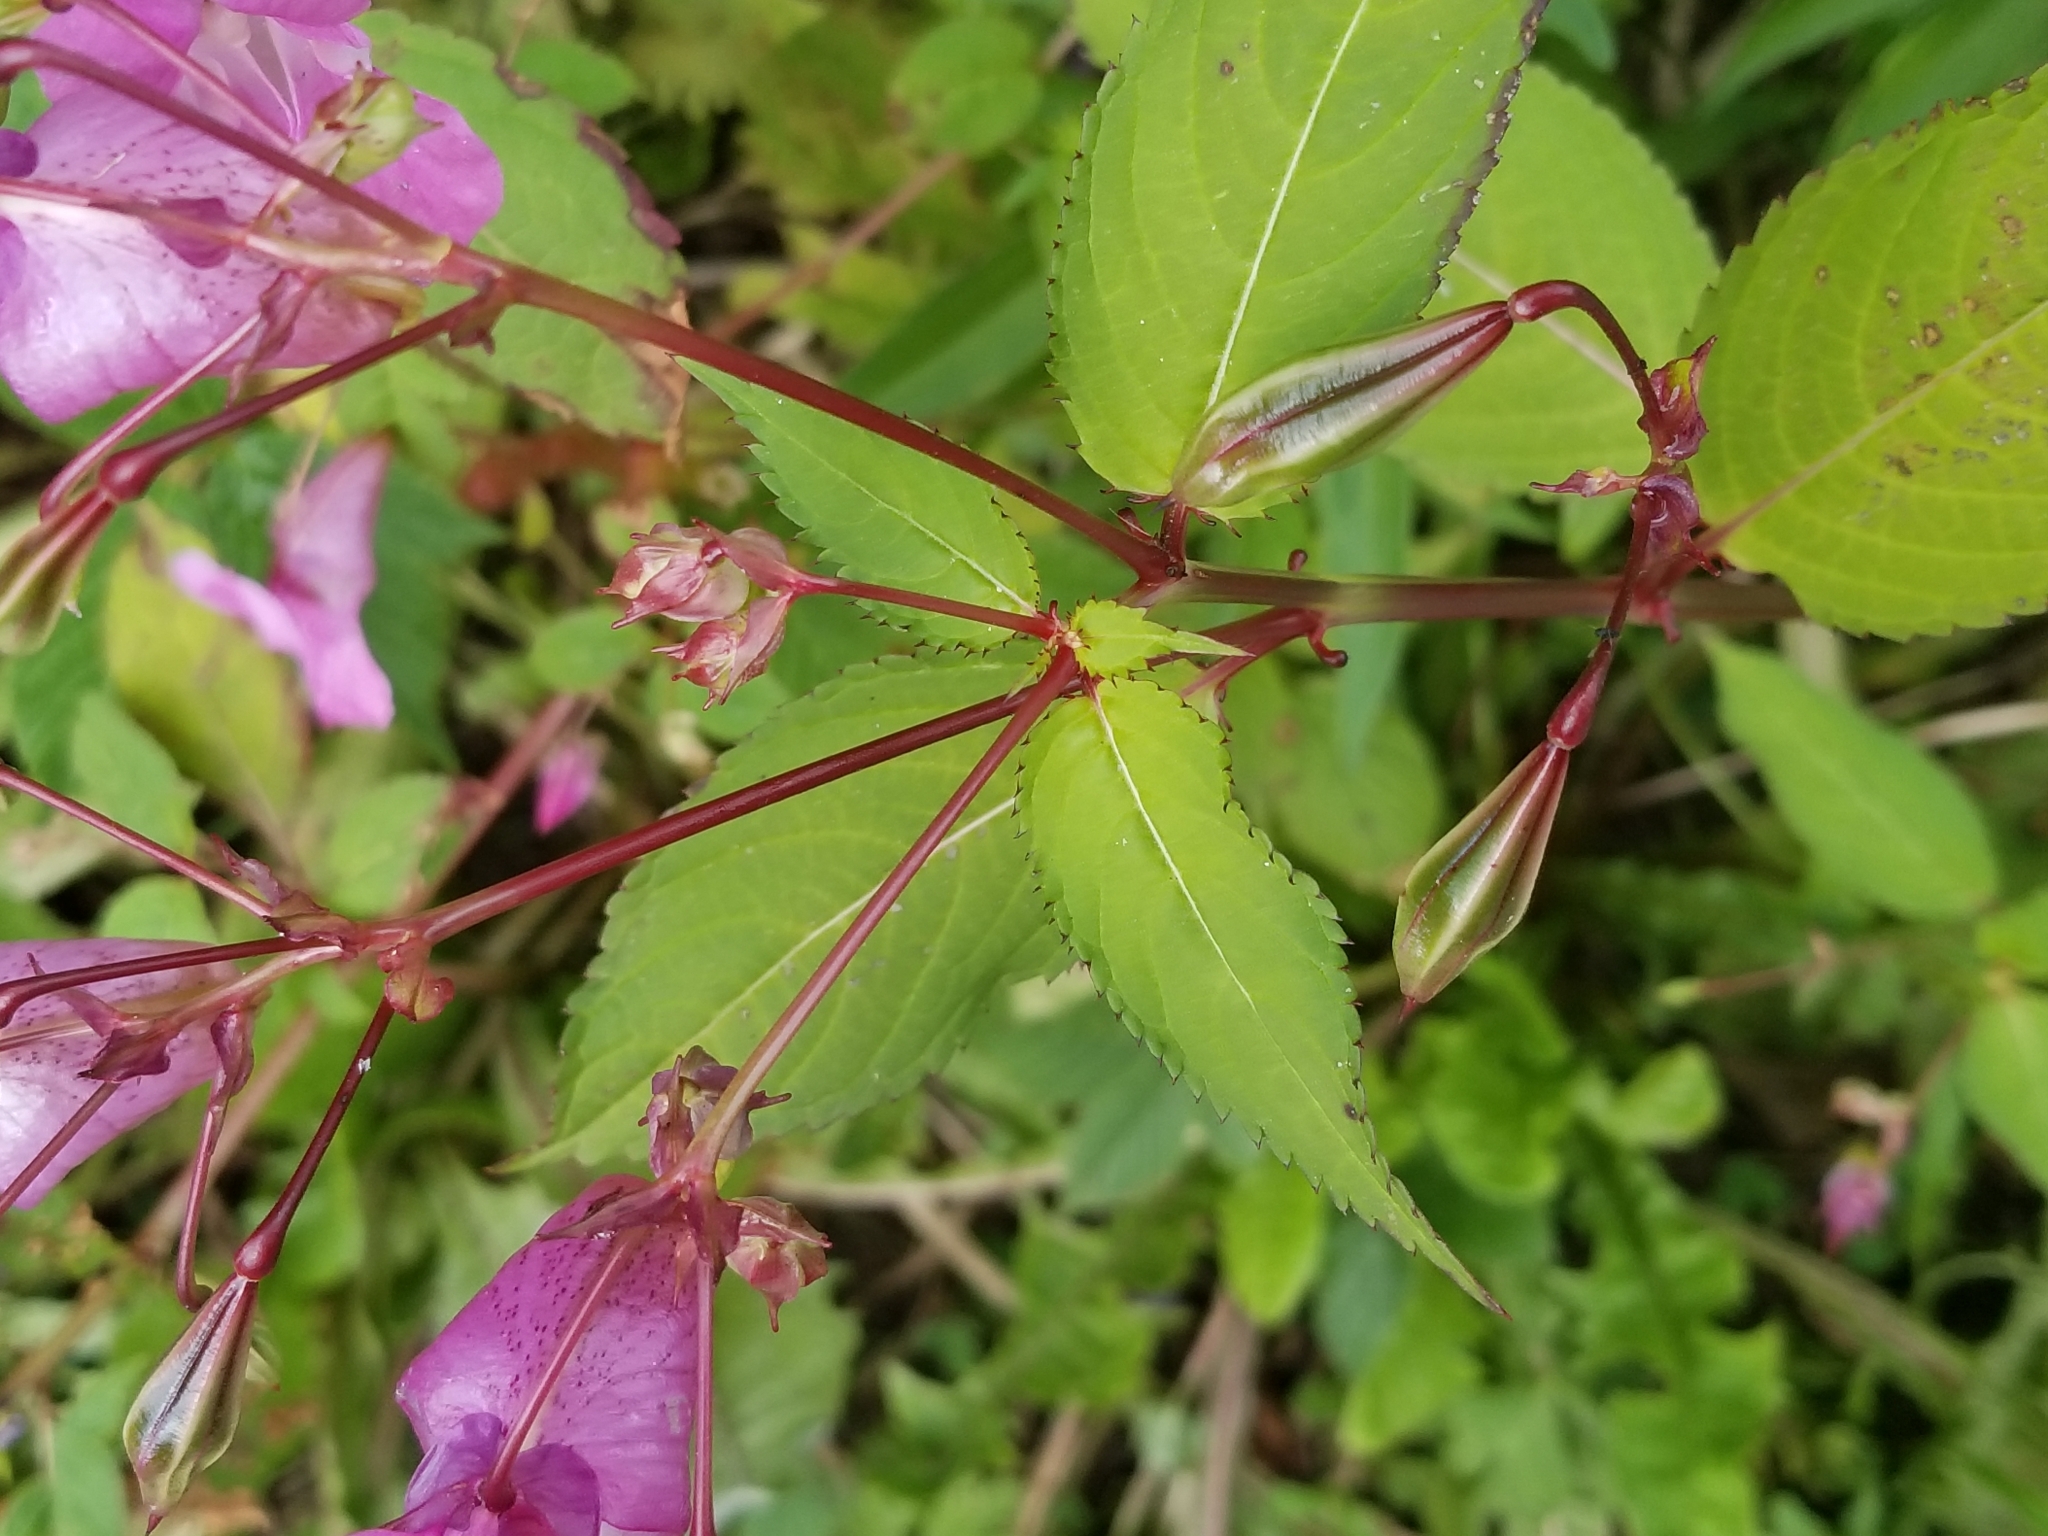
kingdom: Plantae
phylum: Tracheophyta
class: Magnoliopsida
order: Ericales
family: Balsaminaceae
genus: Impatiens
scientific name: Impatiens glandulifera
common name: Himalayan balsam
